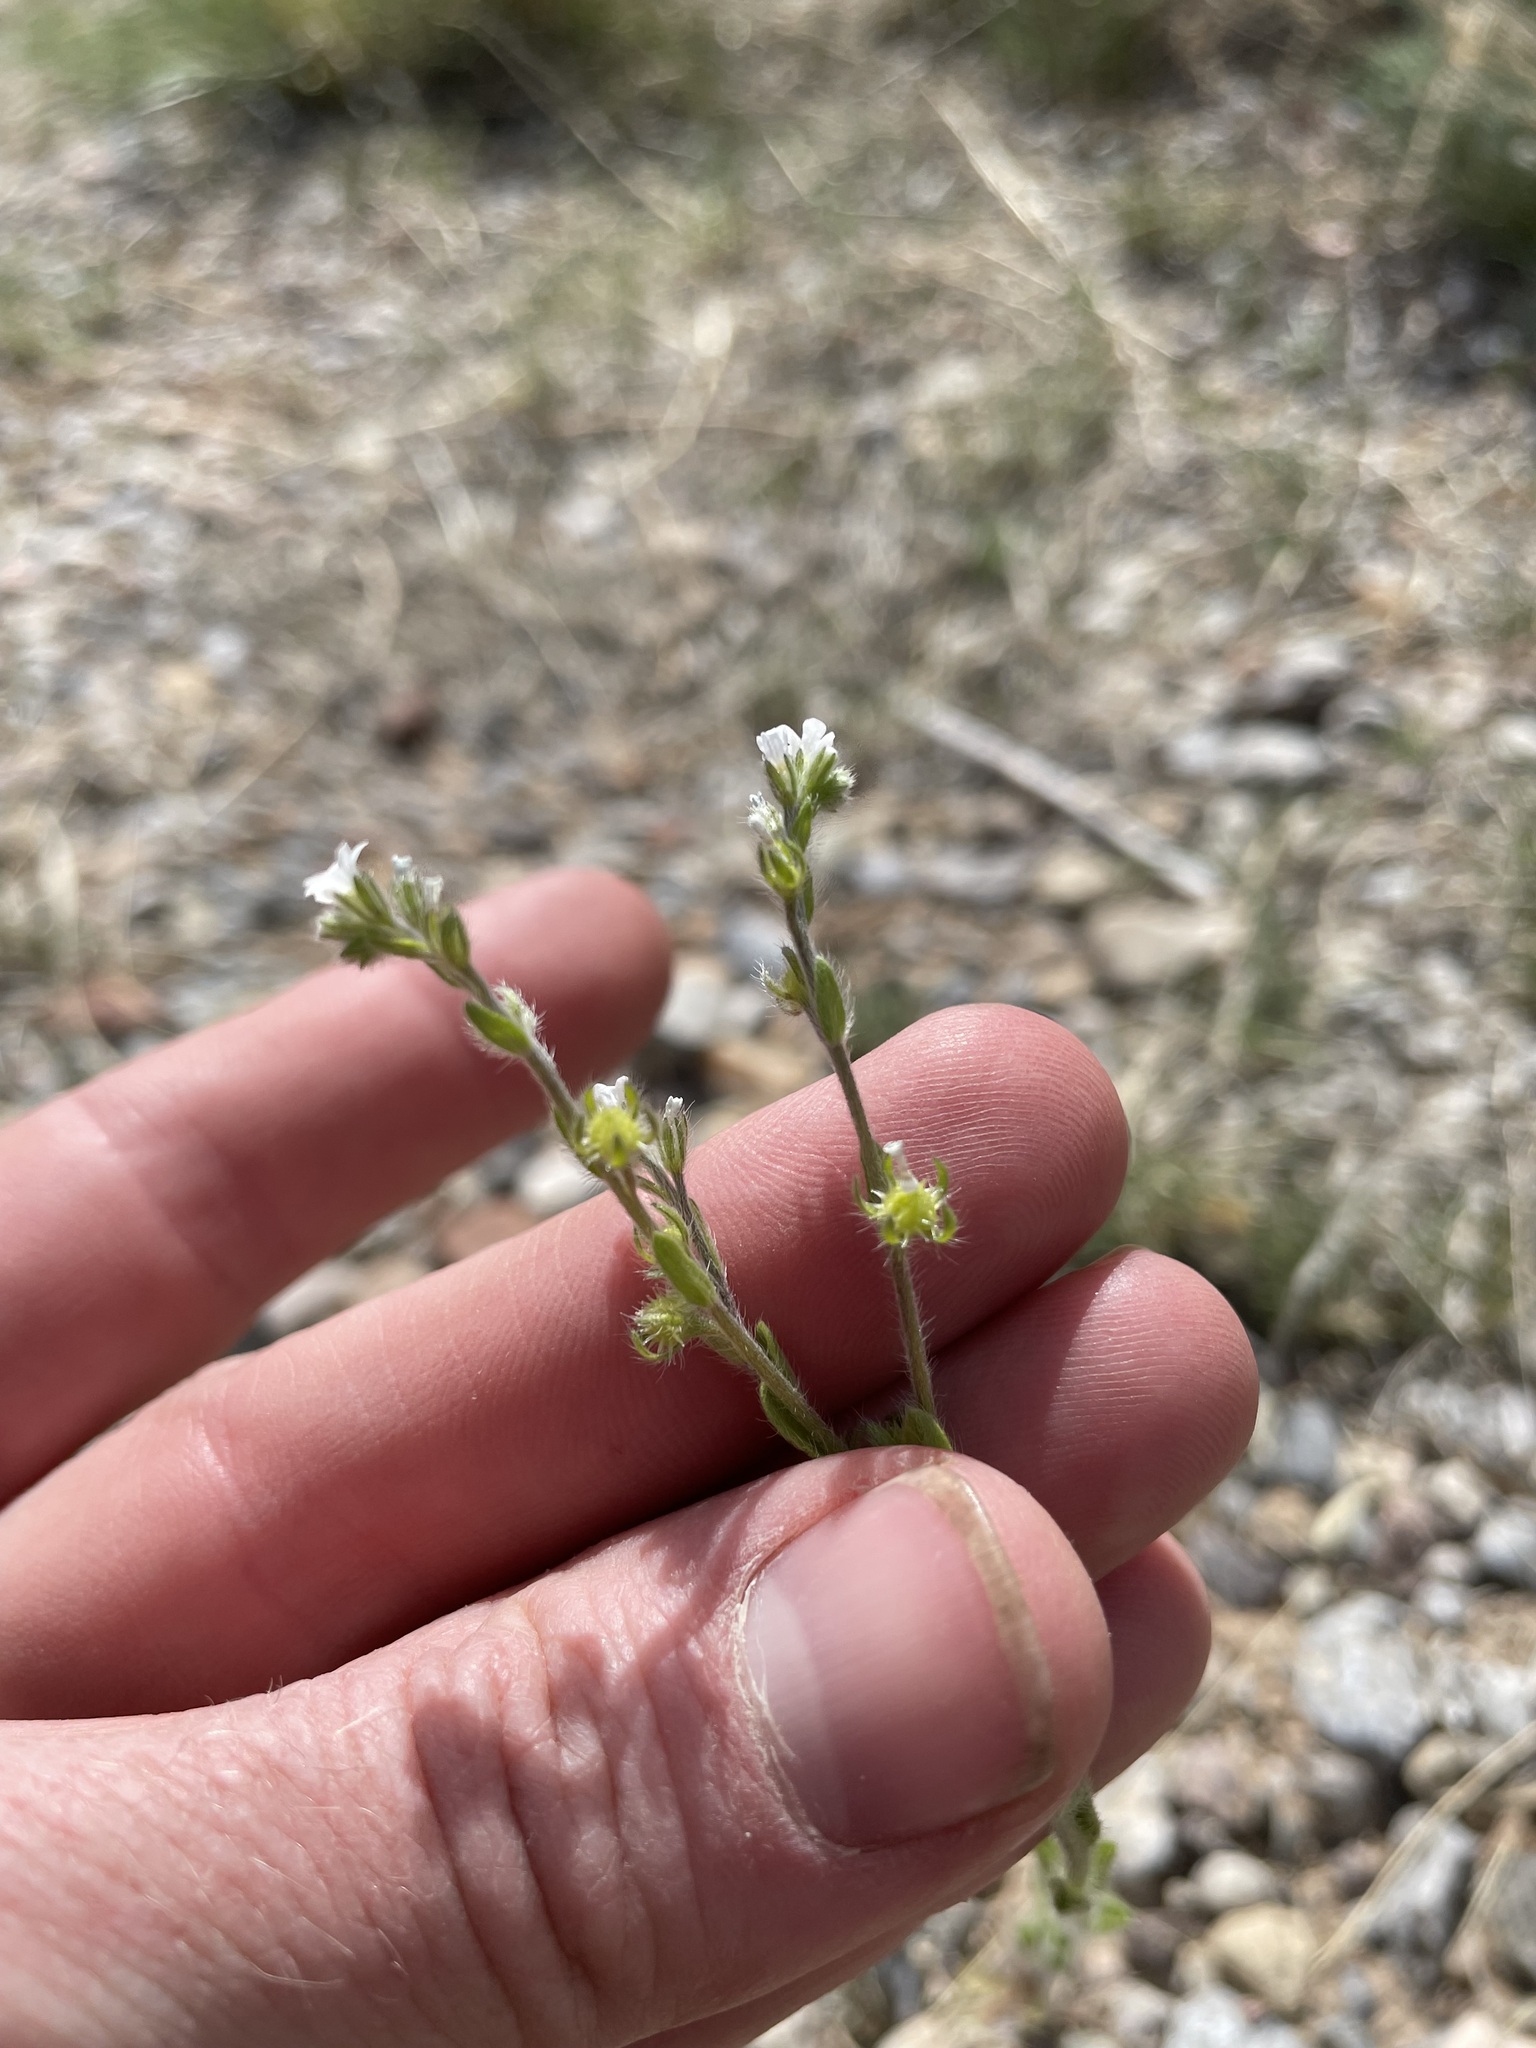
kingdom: Plantae
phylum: Tracheophyta
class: Magnoliopsida
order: Boraginales
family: Boraginaceae
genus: Lappula
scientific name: Lappula occidentalis
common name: Western stickseed
